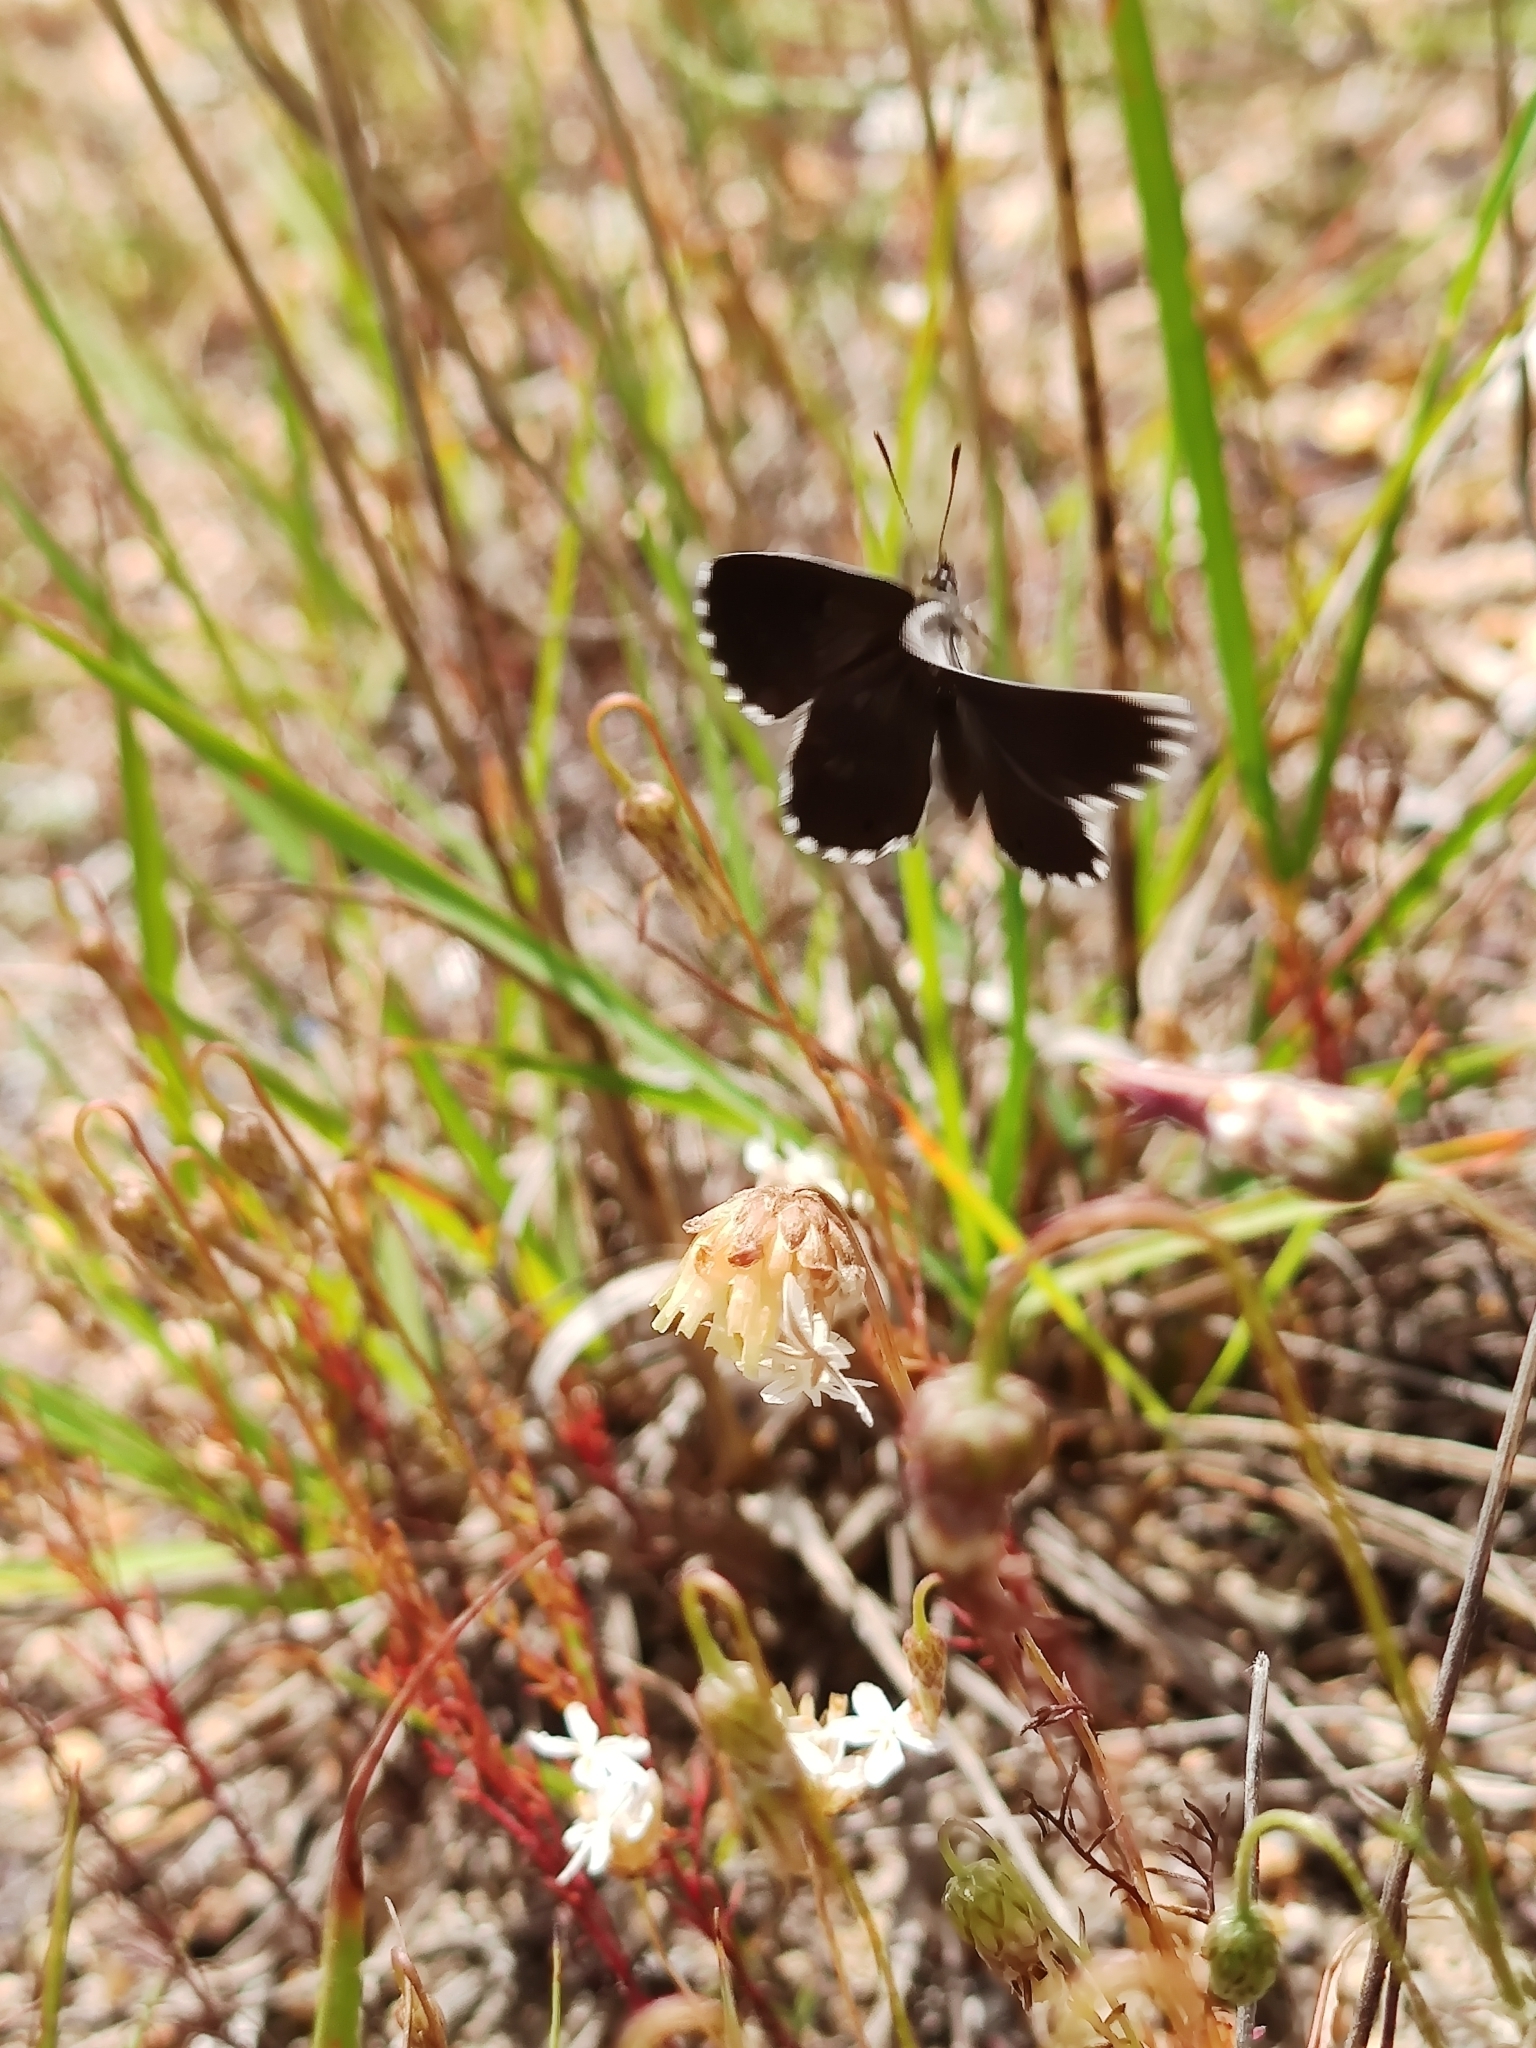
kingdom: Animalia
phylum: Arthropoda
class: Insecta
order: Lepidoptera
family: Lycaenidae
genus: Lepidochrysops
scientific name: Lepidochrysops puncticilia
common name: Mouse blue
